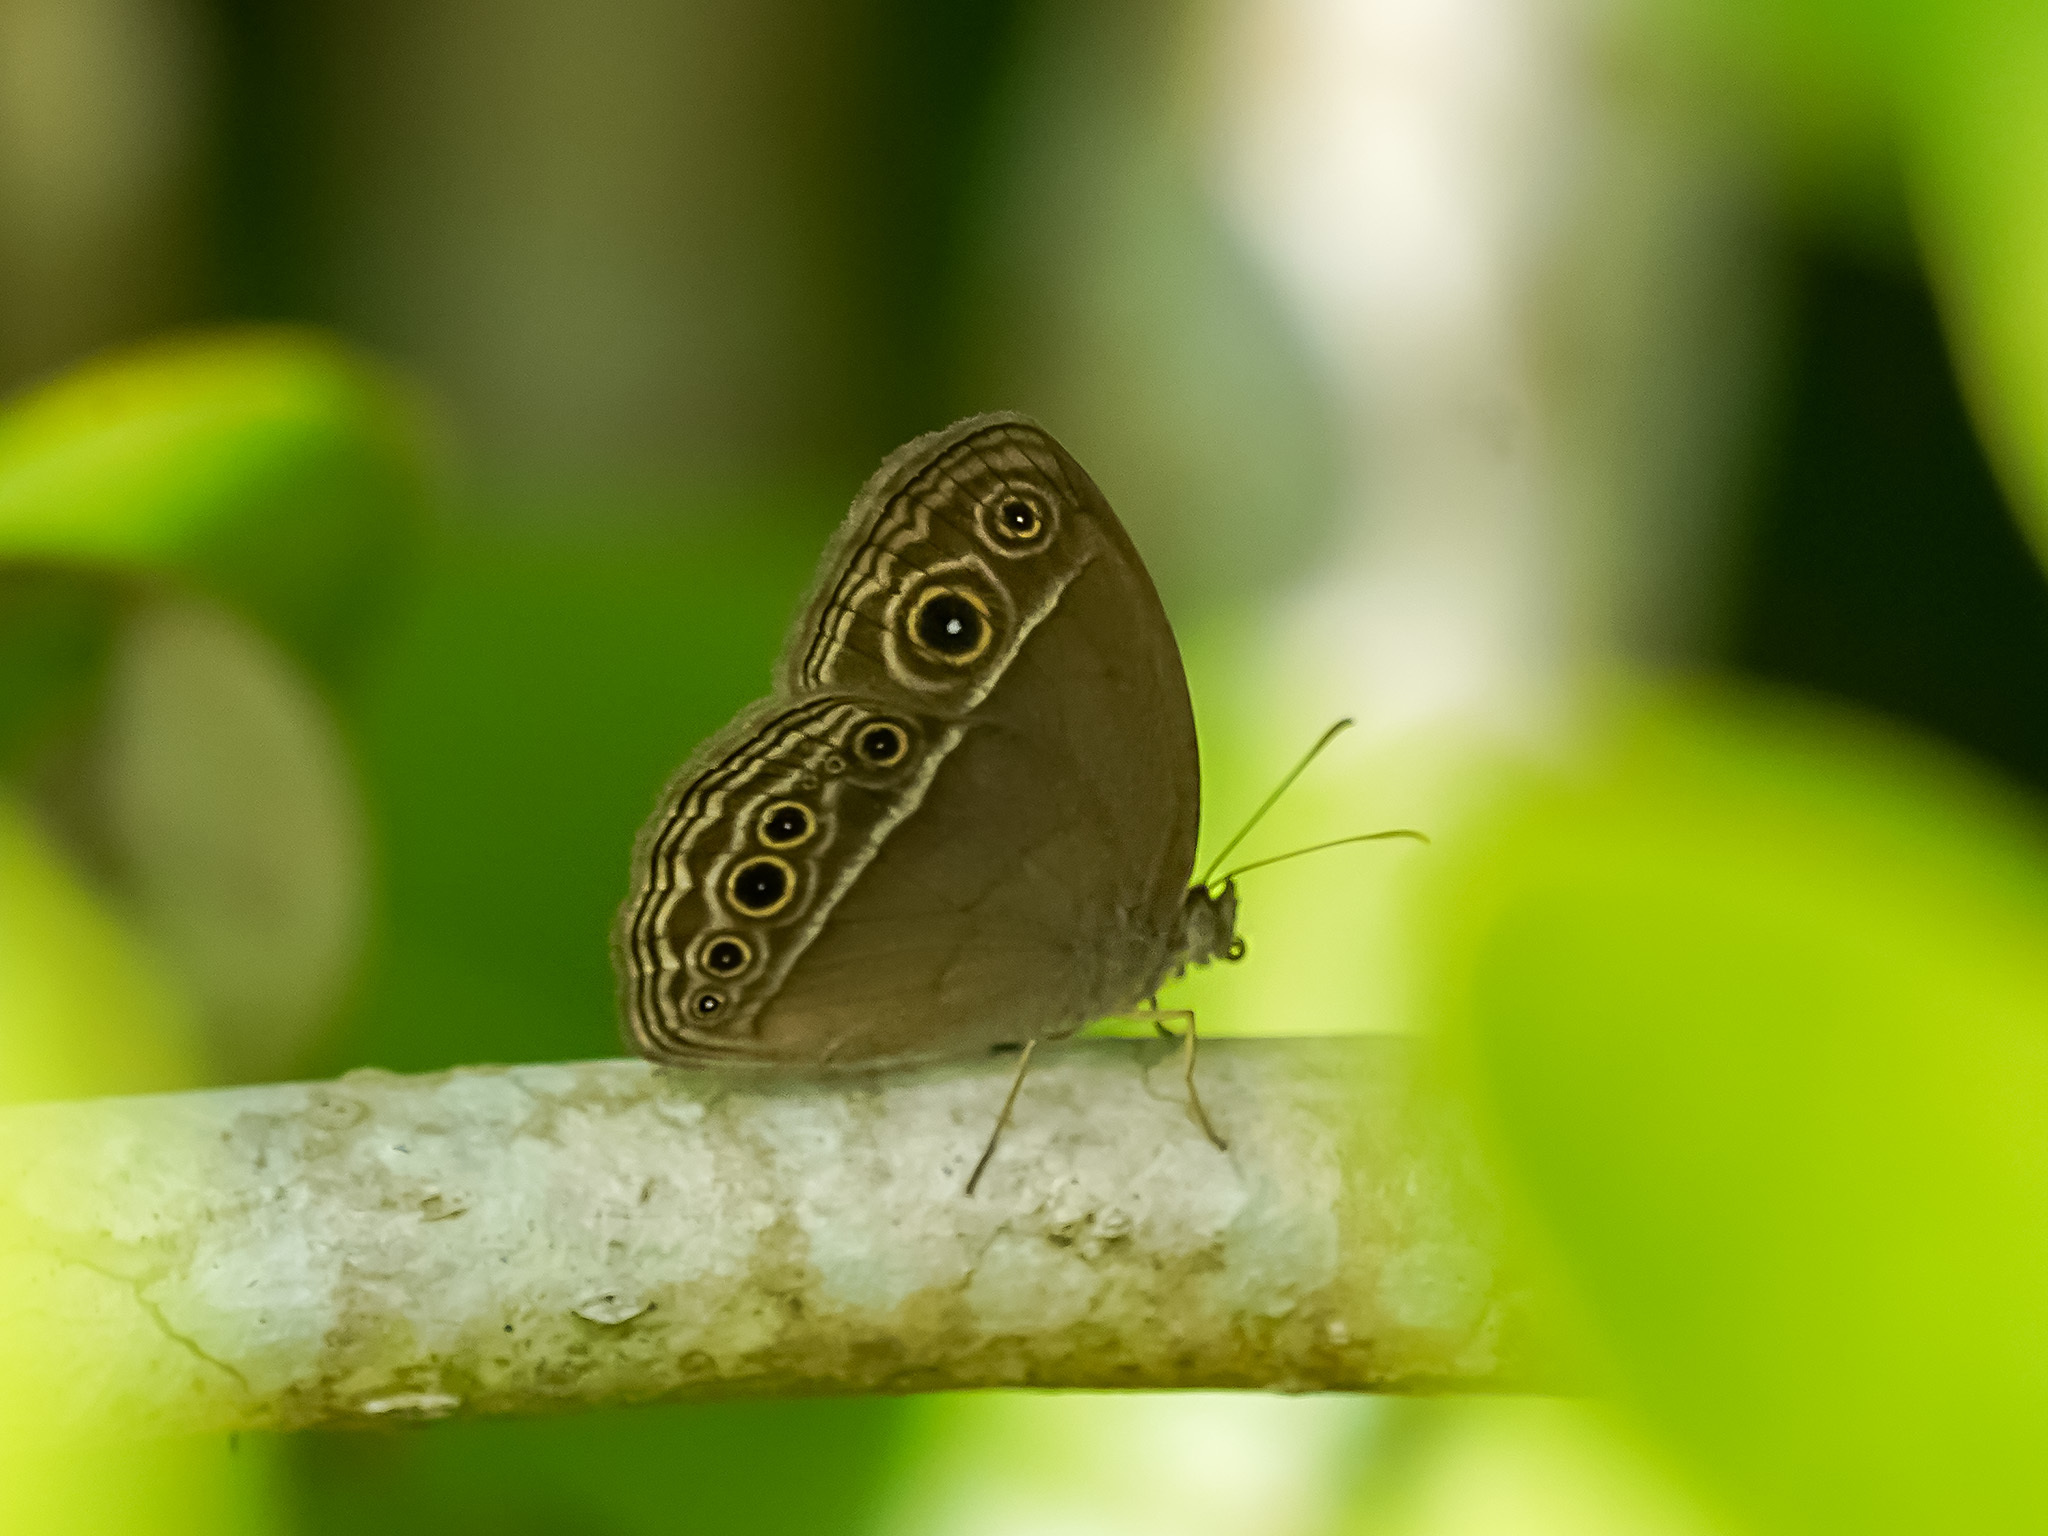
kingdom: Animalia
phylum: Arthropoda
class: Insecta
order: Lepidoptera
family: Nymphalidae
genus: Mycalesis
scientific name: Mycalesis mineus
